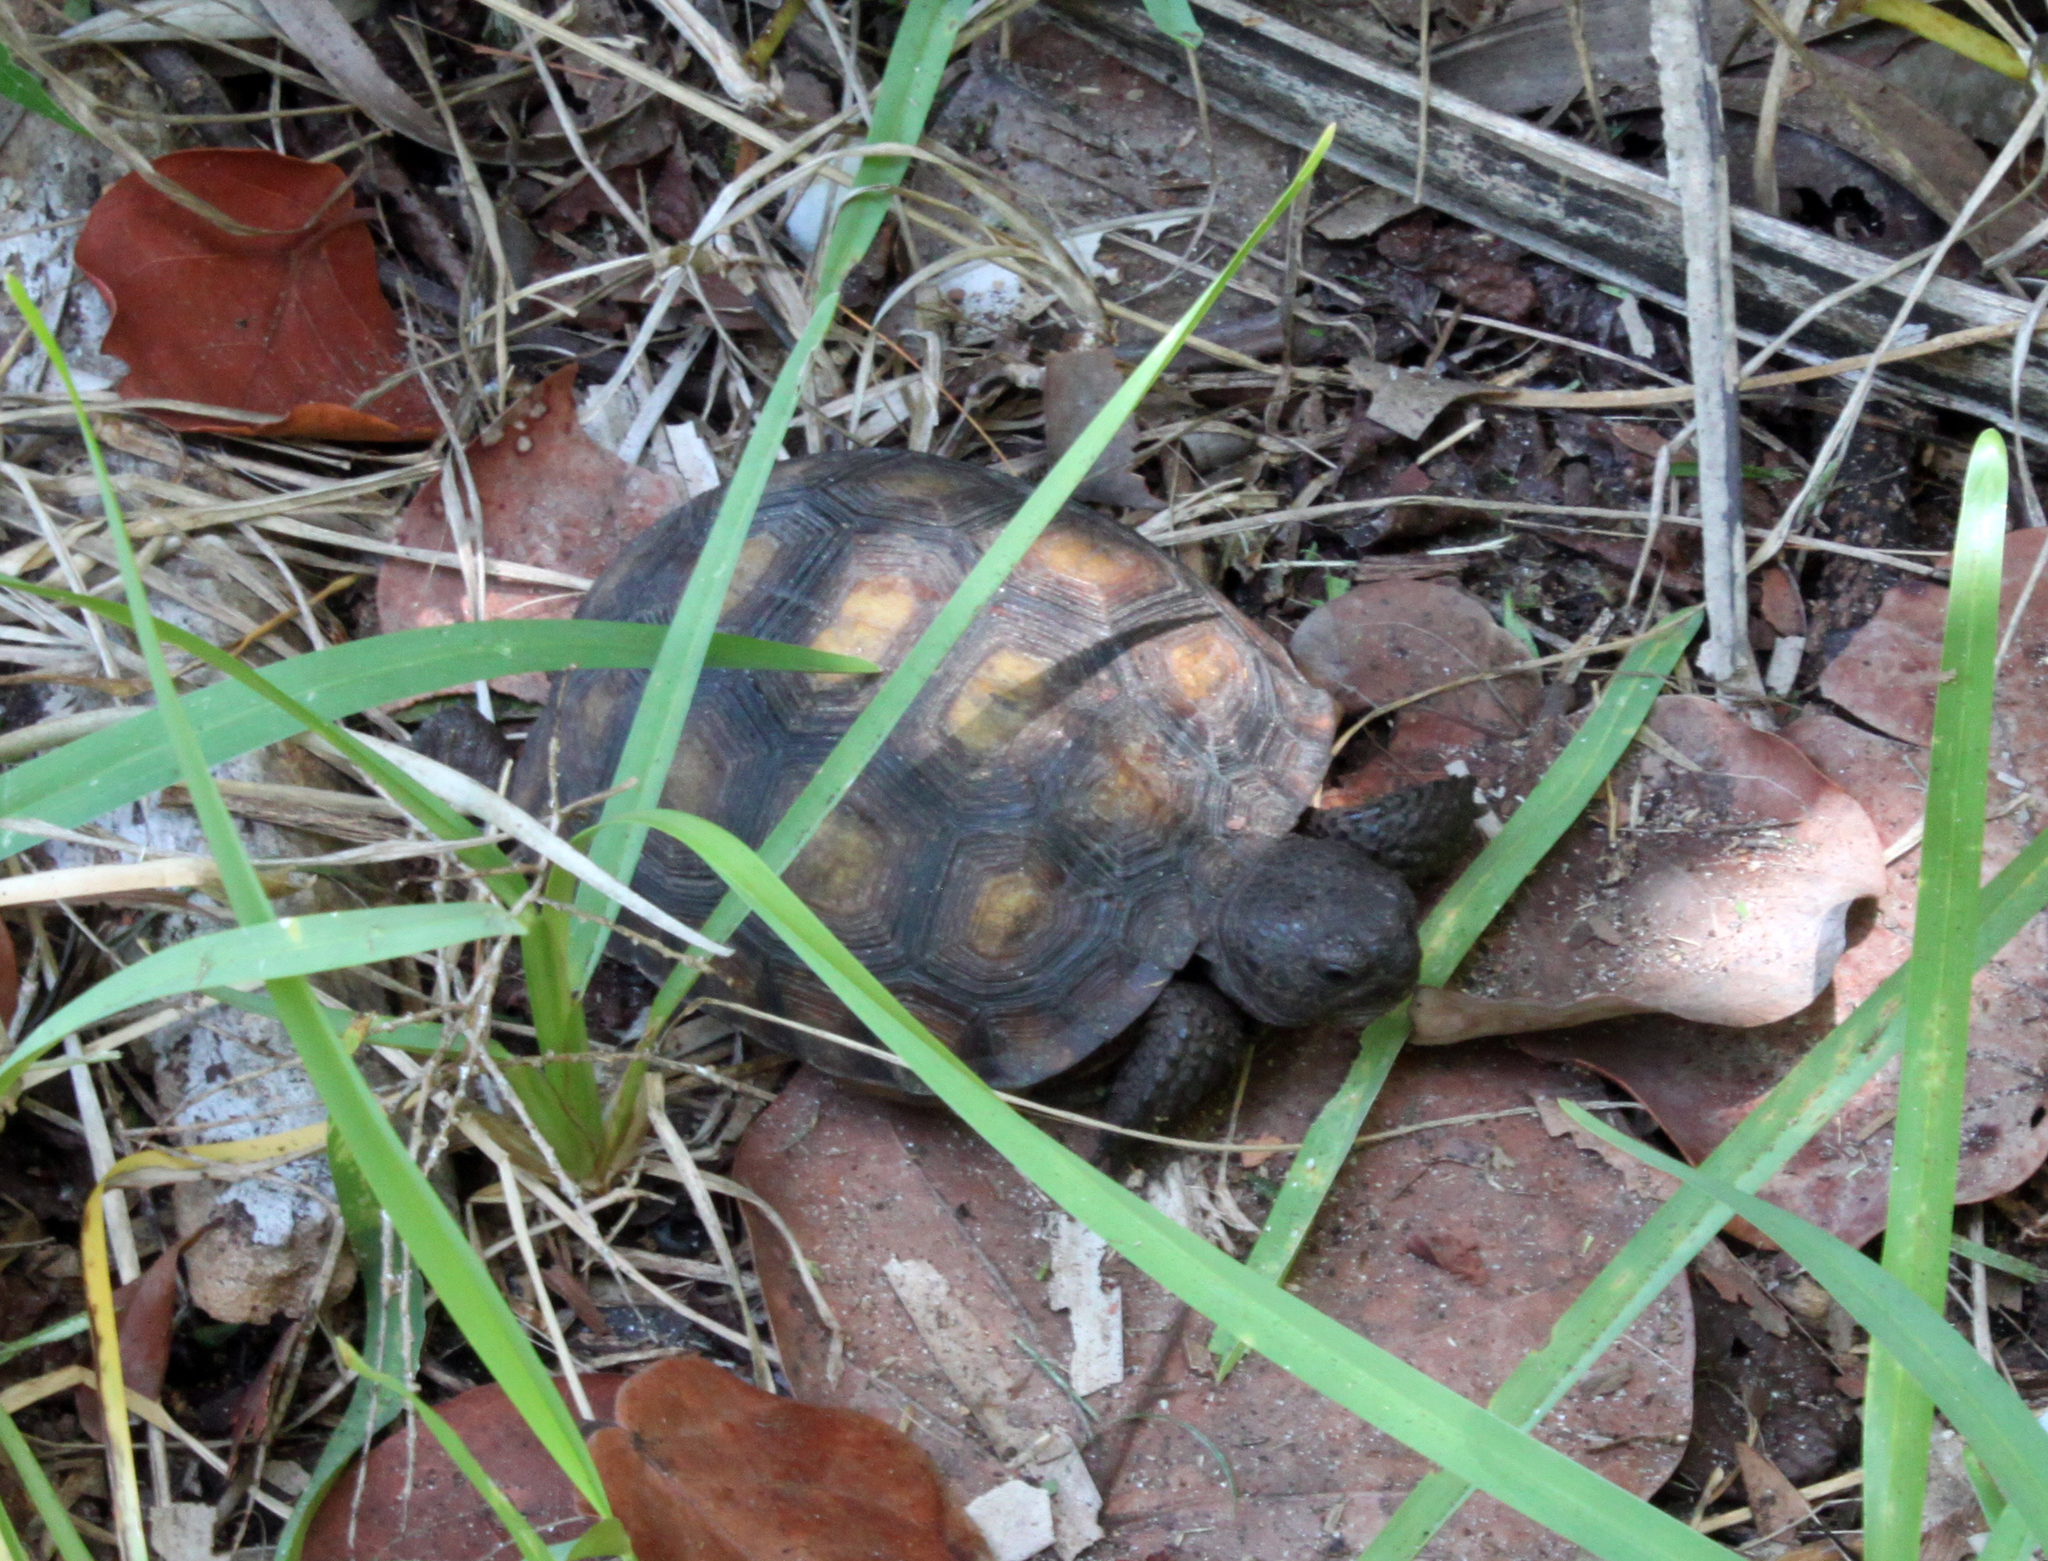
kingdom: Animalia
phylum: Chordata
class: Testudines
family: Testudinidae
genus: Gopherus
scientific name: Gopherus polyphemus
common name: Florida gopher tortoise
